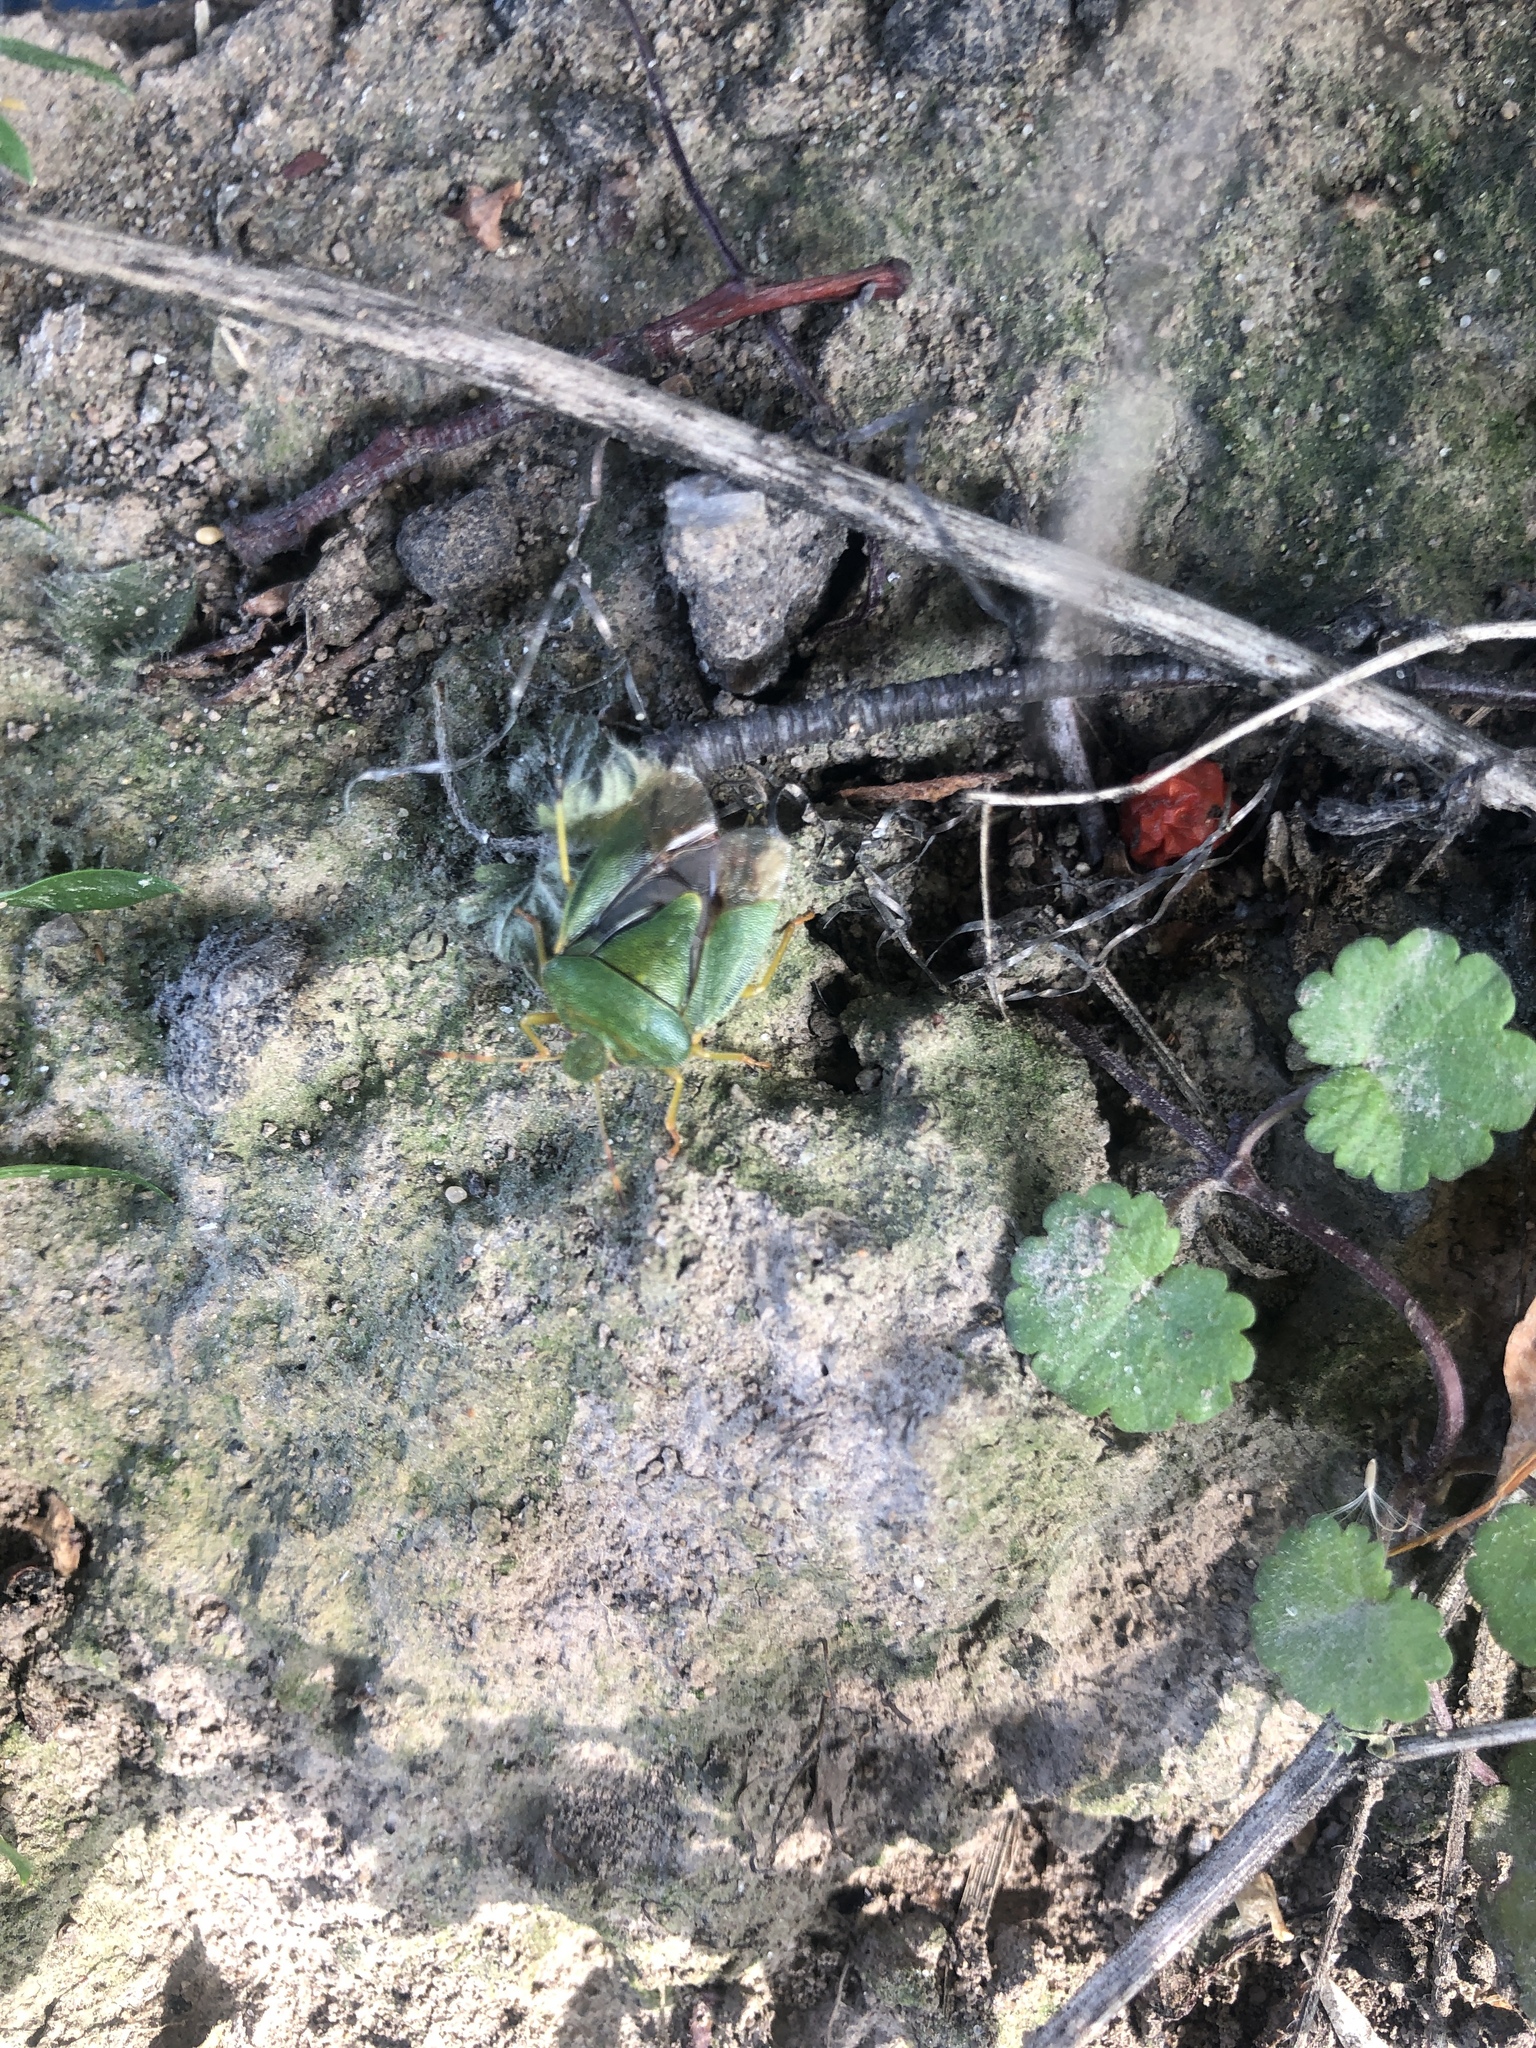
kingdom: Animalia
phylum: Arthropoda
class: Insecta
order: Hemiptera
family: Pentatomidae
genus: Palomena
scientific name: Palomena prasina
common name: Green shieldbug
